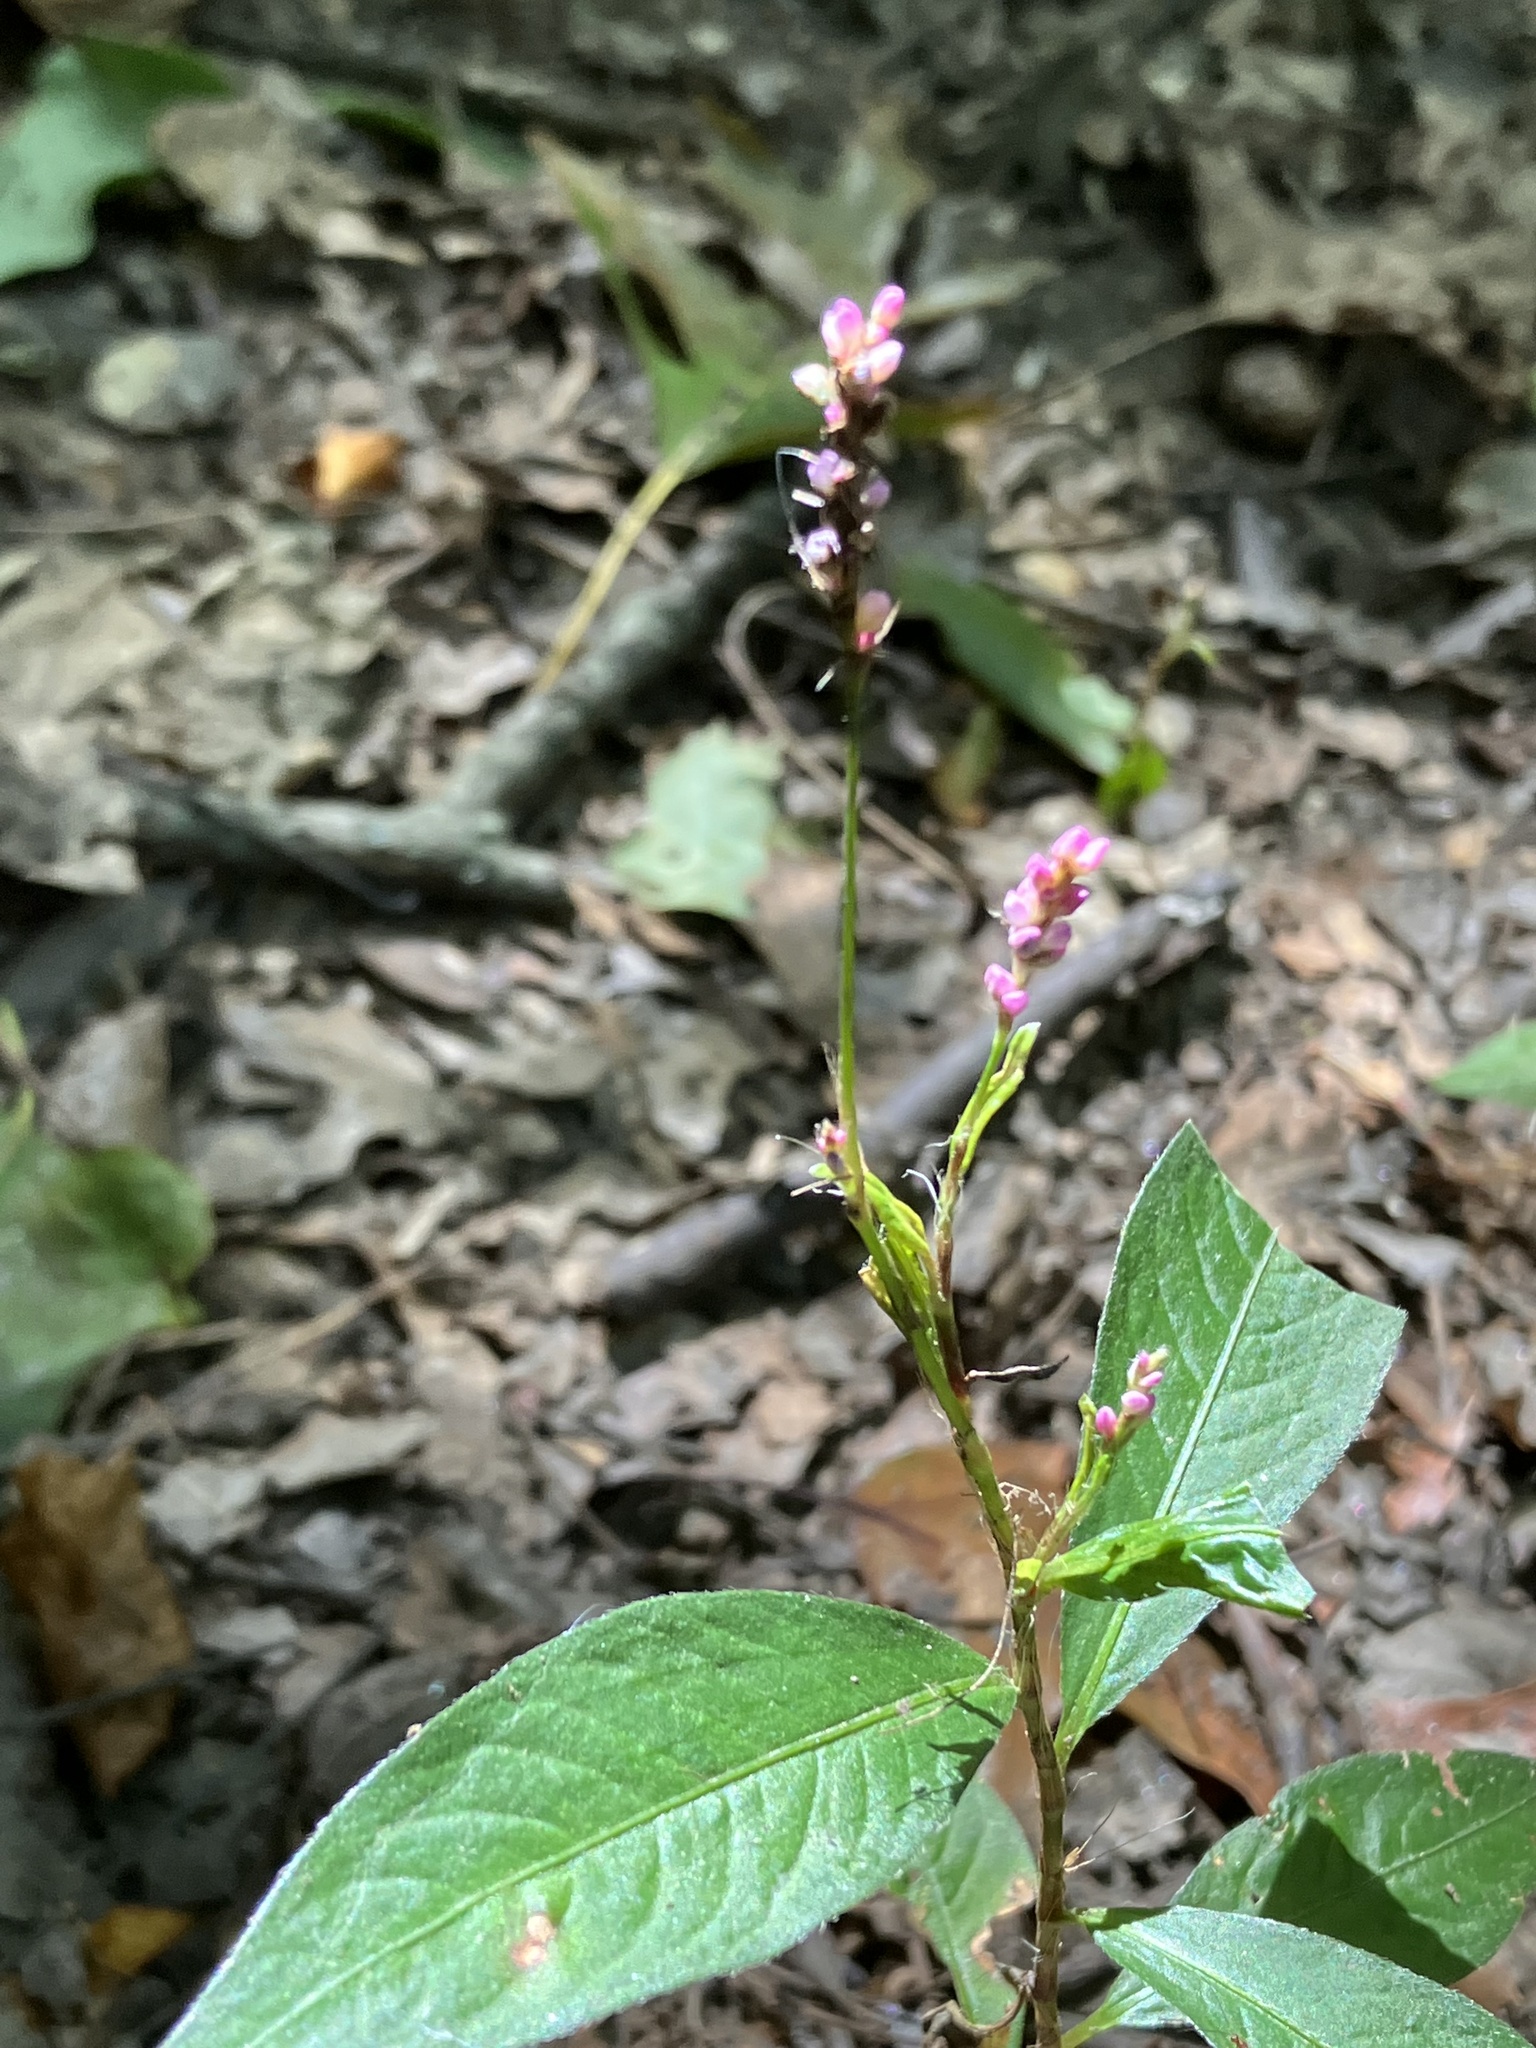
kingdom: Plantae
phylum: Tracheophyta
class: Magnoliopsida
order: Caryophyllales
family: Polygonaceae
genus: Persicaria
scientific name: Persicaria longiseta
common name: Bristly lady's-thumb
